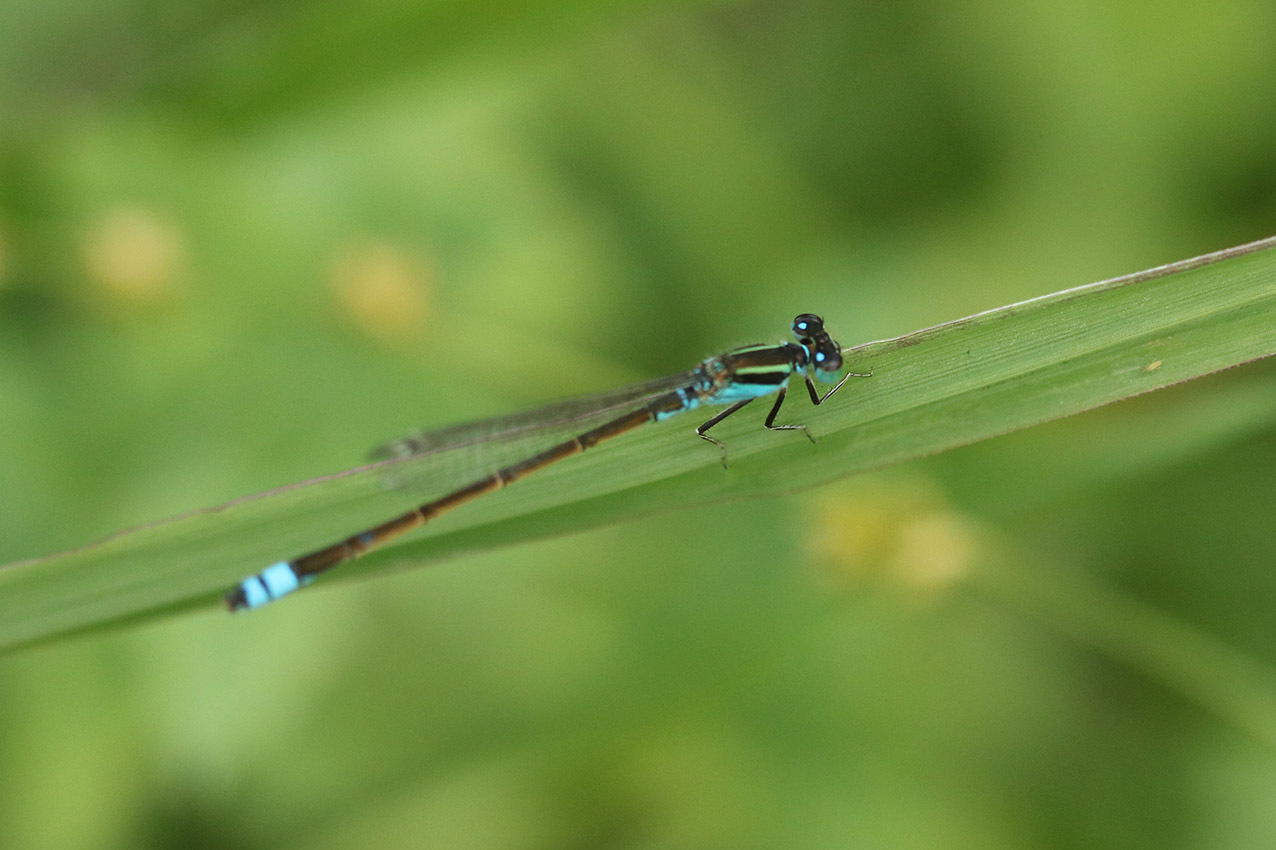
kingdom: Animalia
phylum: Arthropoda
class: Insecta
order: Odonata
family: Coenagrionidae
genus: Ischnura
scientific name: Ischnura fluviatilis
